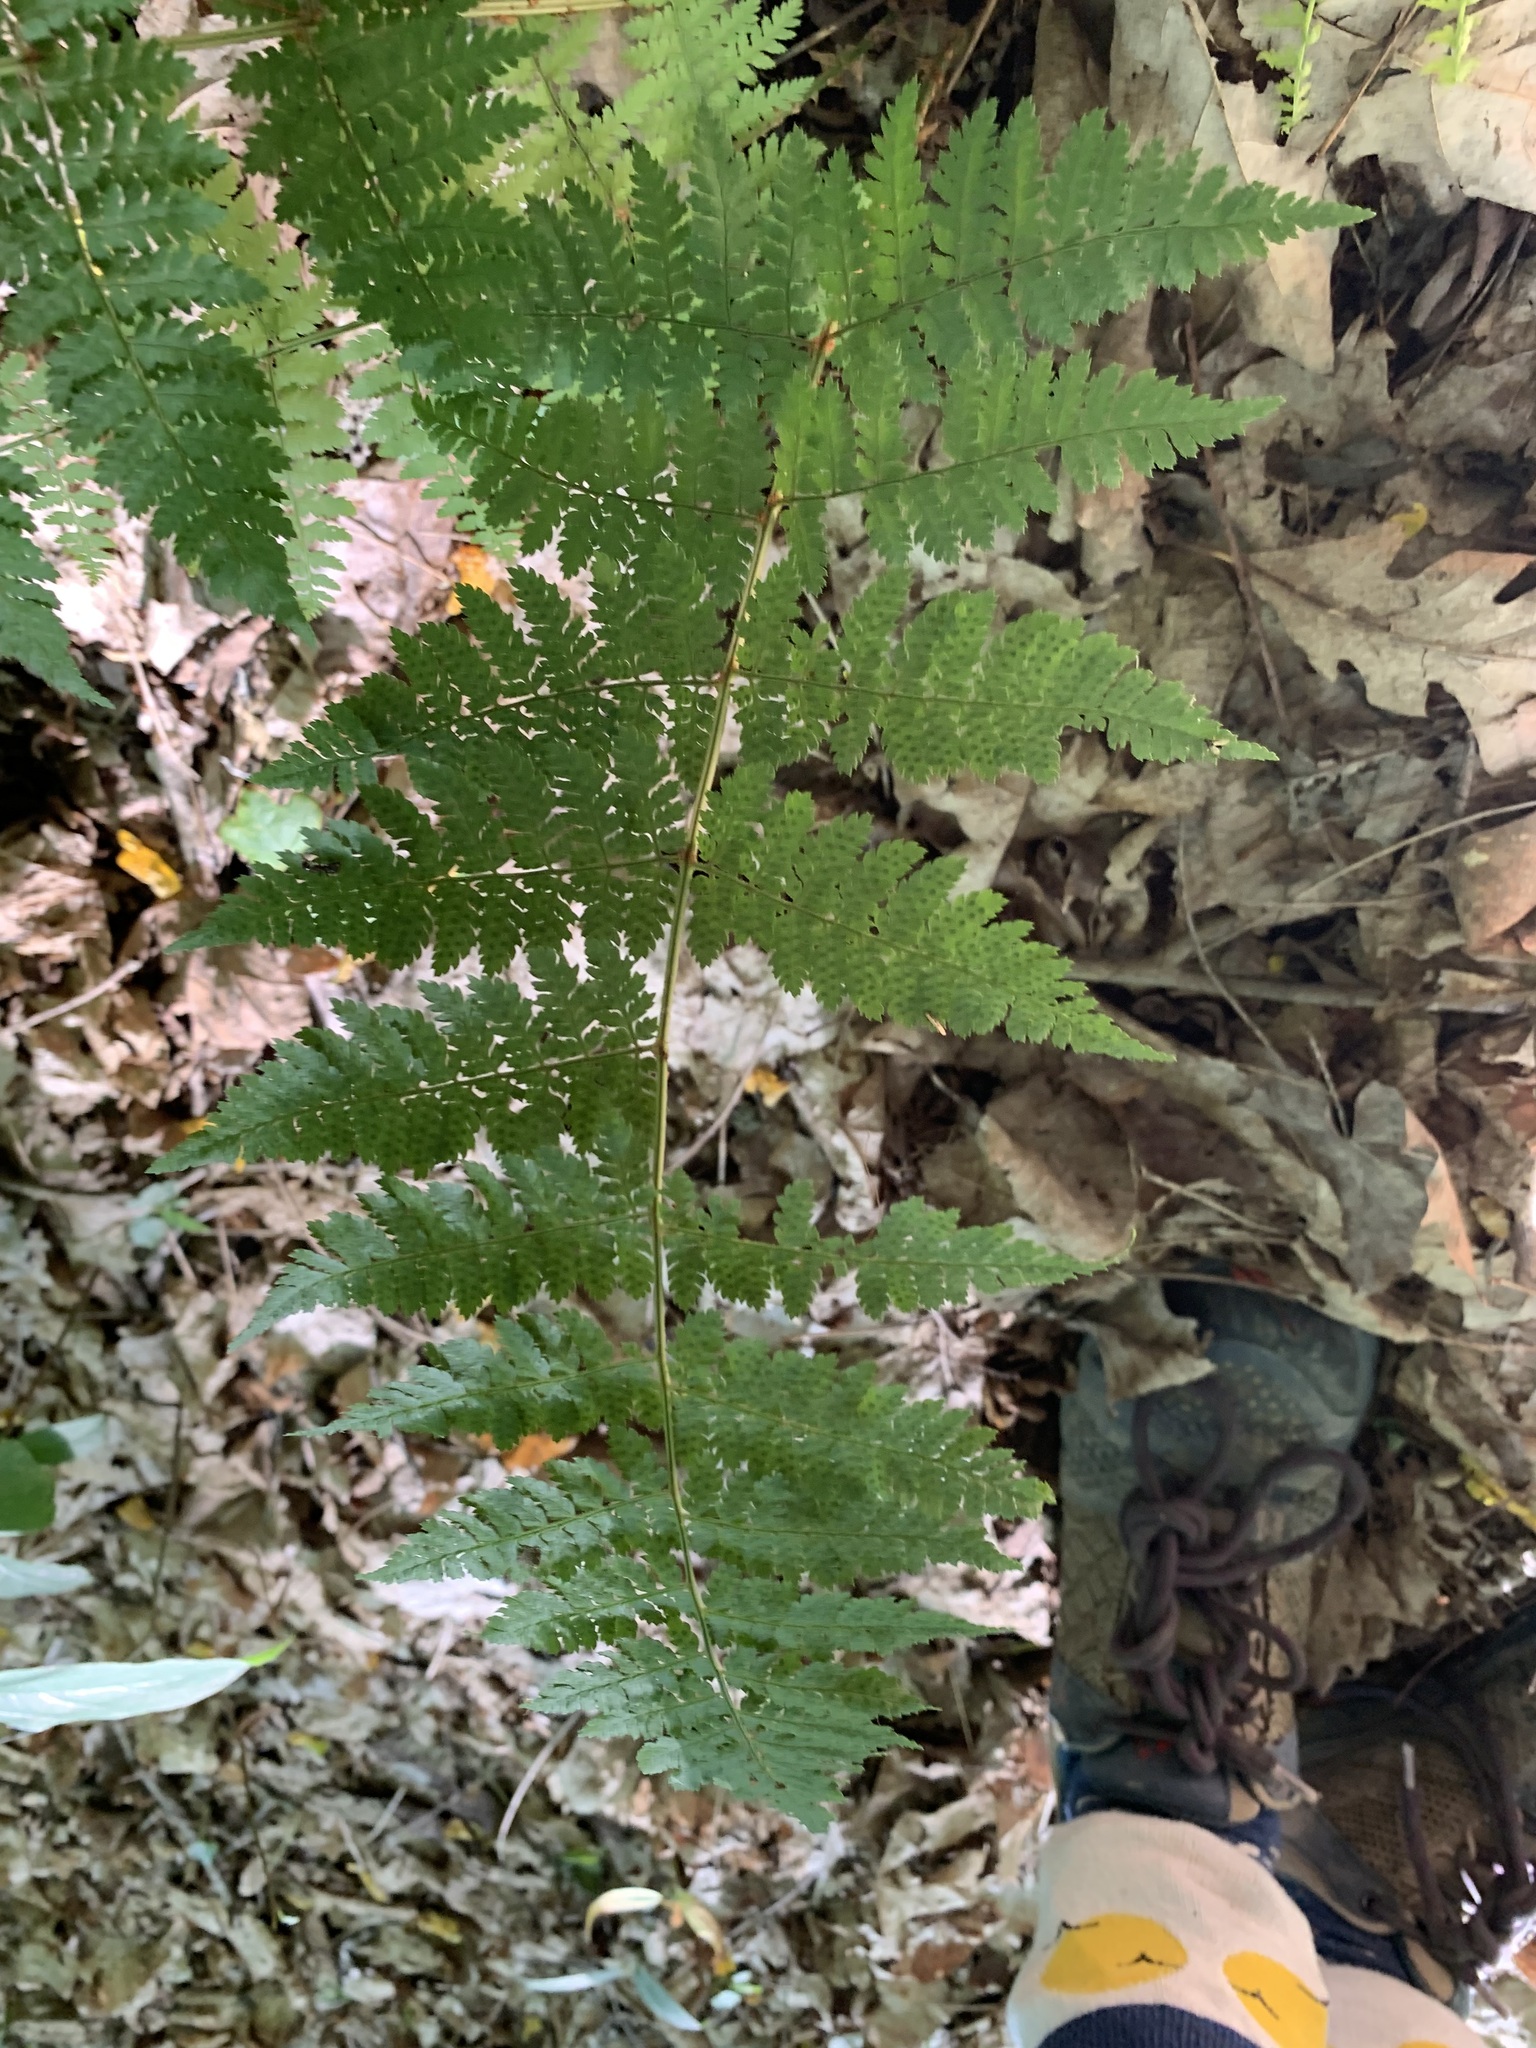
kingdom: Plantae
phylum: Tracheophyta
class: Polypodiopsida
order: Polypodiales
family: Dryopteridaceae
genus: Dryopteris
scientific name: Dryopteris intermedia
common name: Evergreen wood fern
